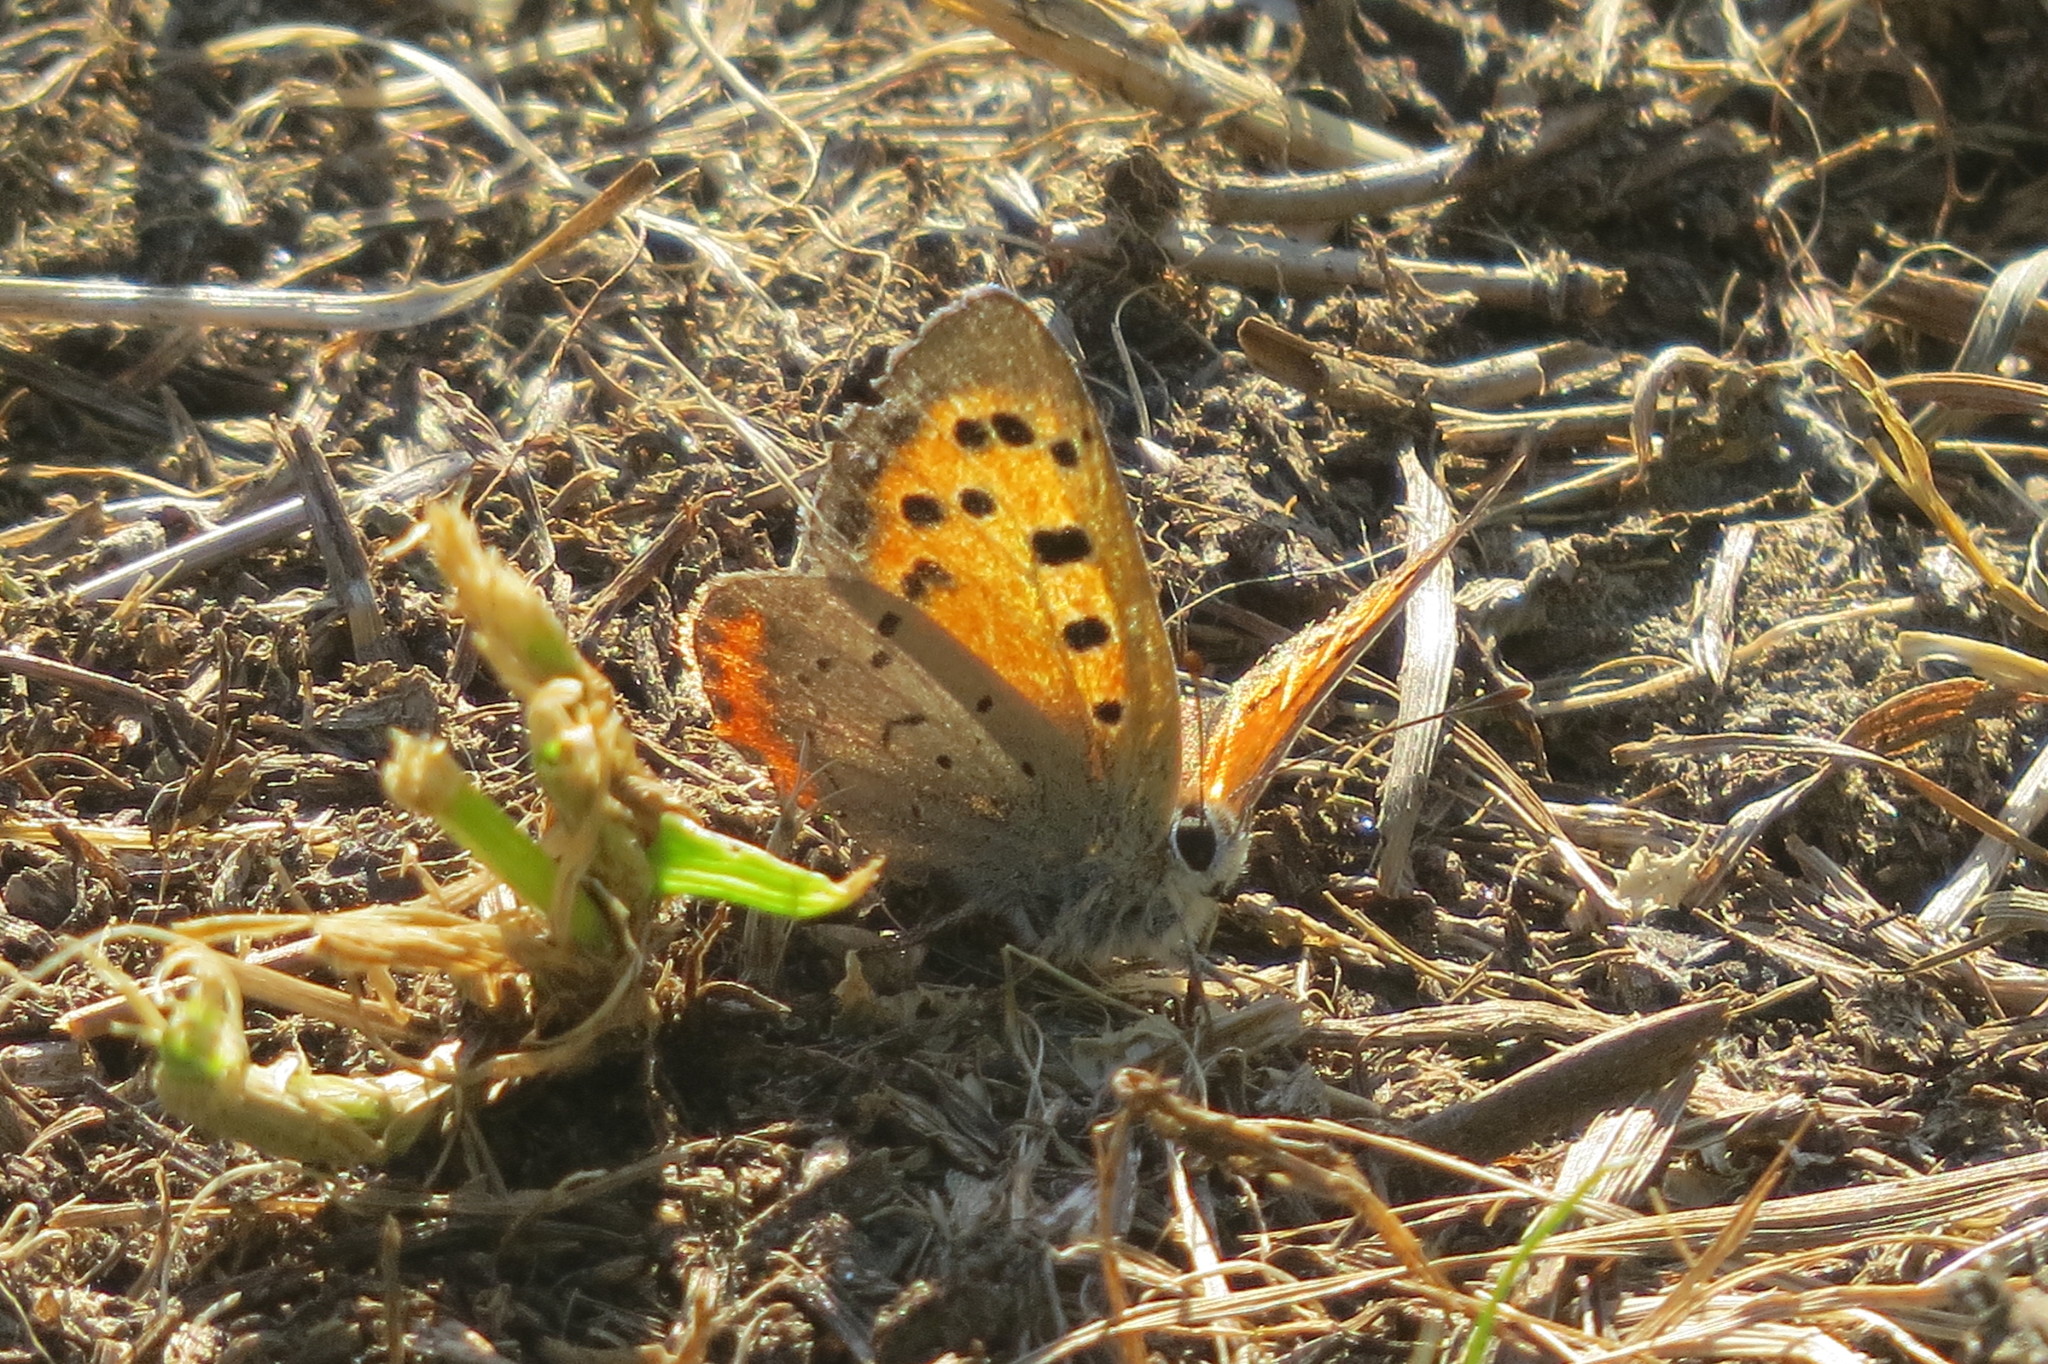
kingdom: Animalia
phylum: Arthropoda
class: Insecta
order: Lepidoptera
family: Lycaenidae
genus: Lycaena
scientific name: Lycaena phlaeas
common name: Small copper
